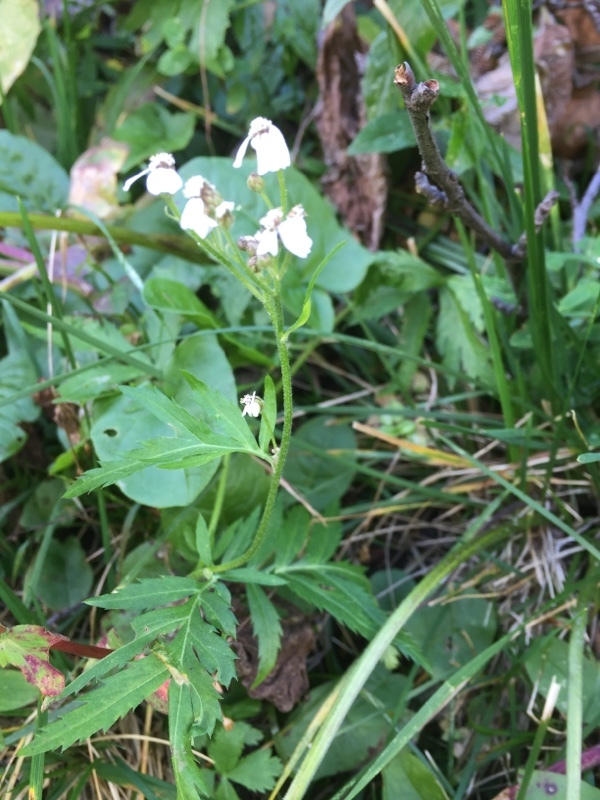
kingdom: Plantae
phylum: Tracheophyta
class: Magnoliopsida
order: Asterales
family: Asteraceae
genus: Achillea
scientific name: Achillea macrophylla
